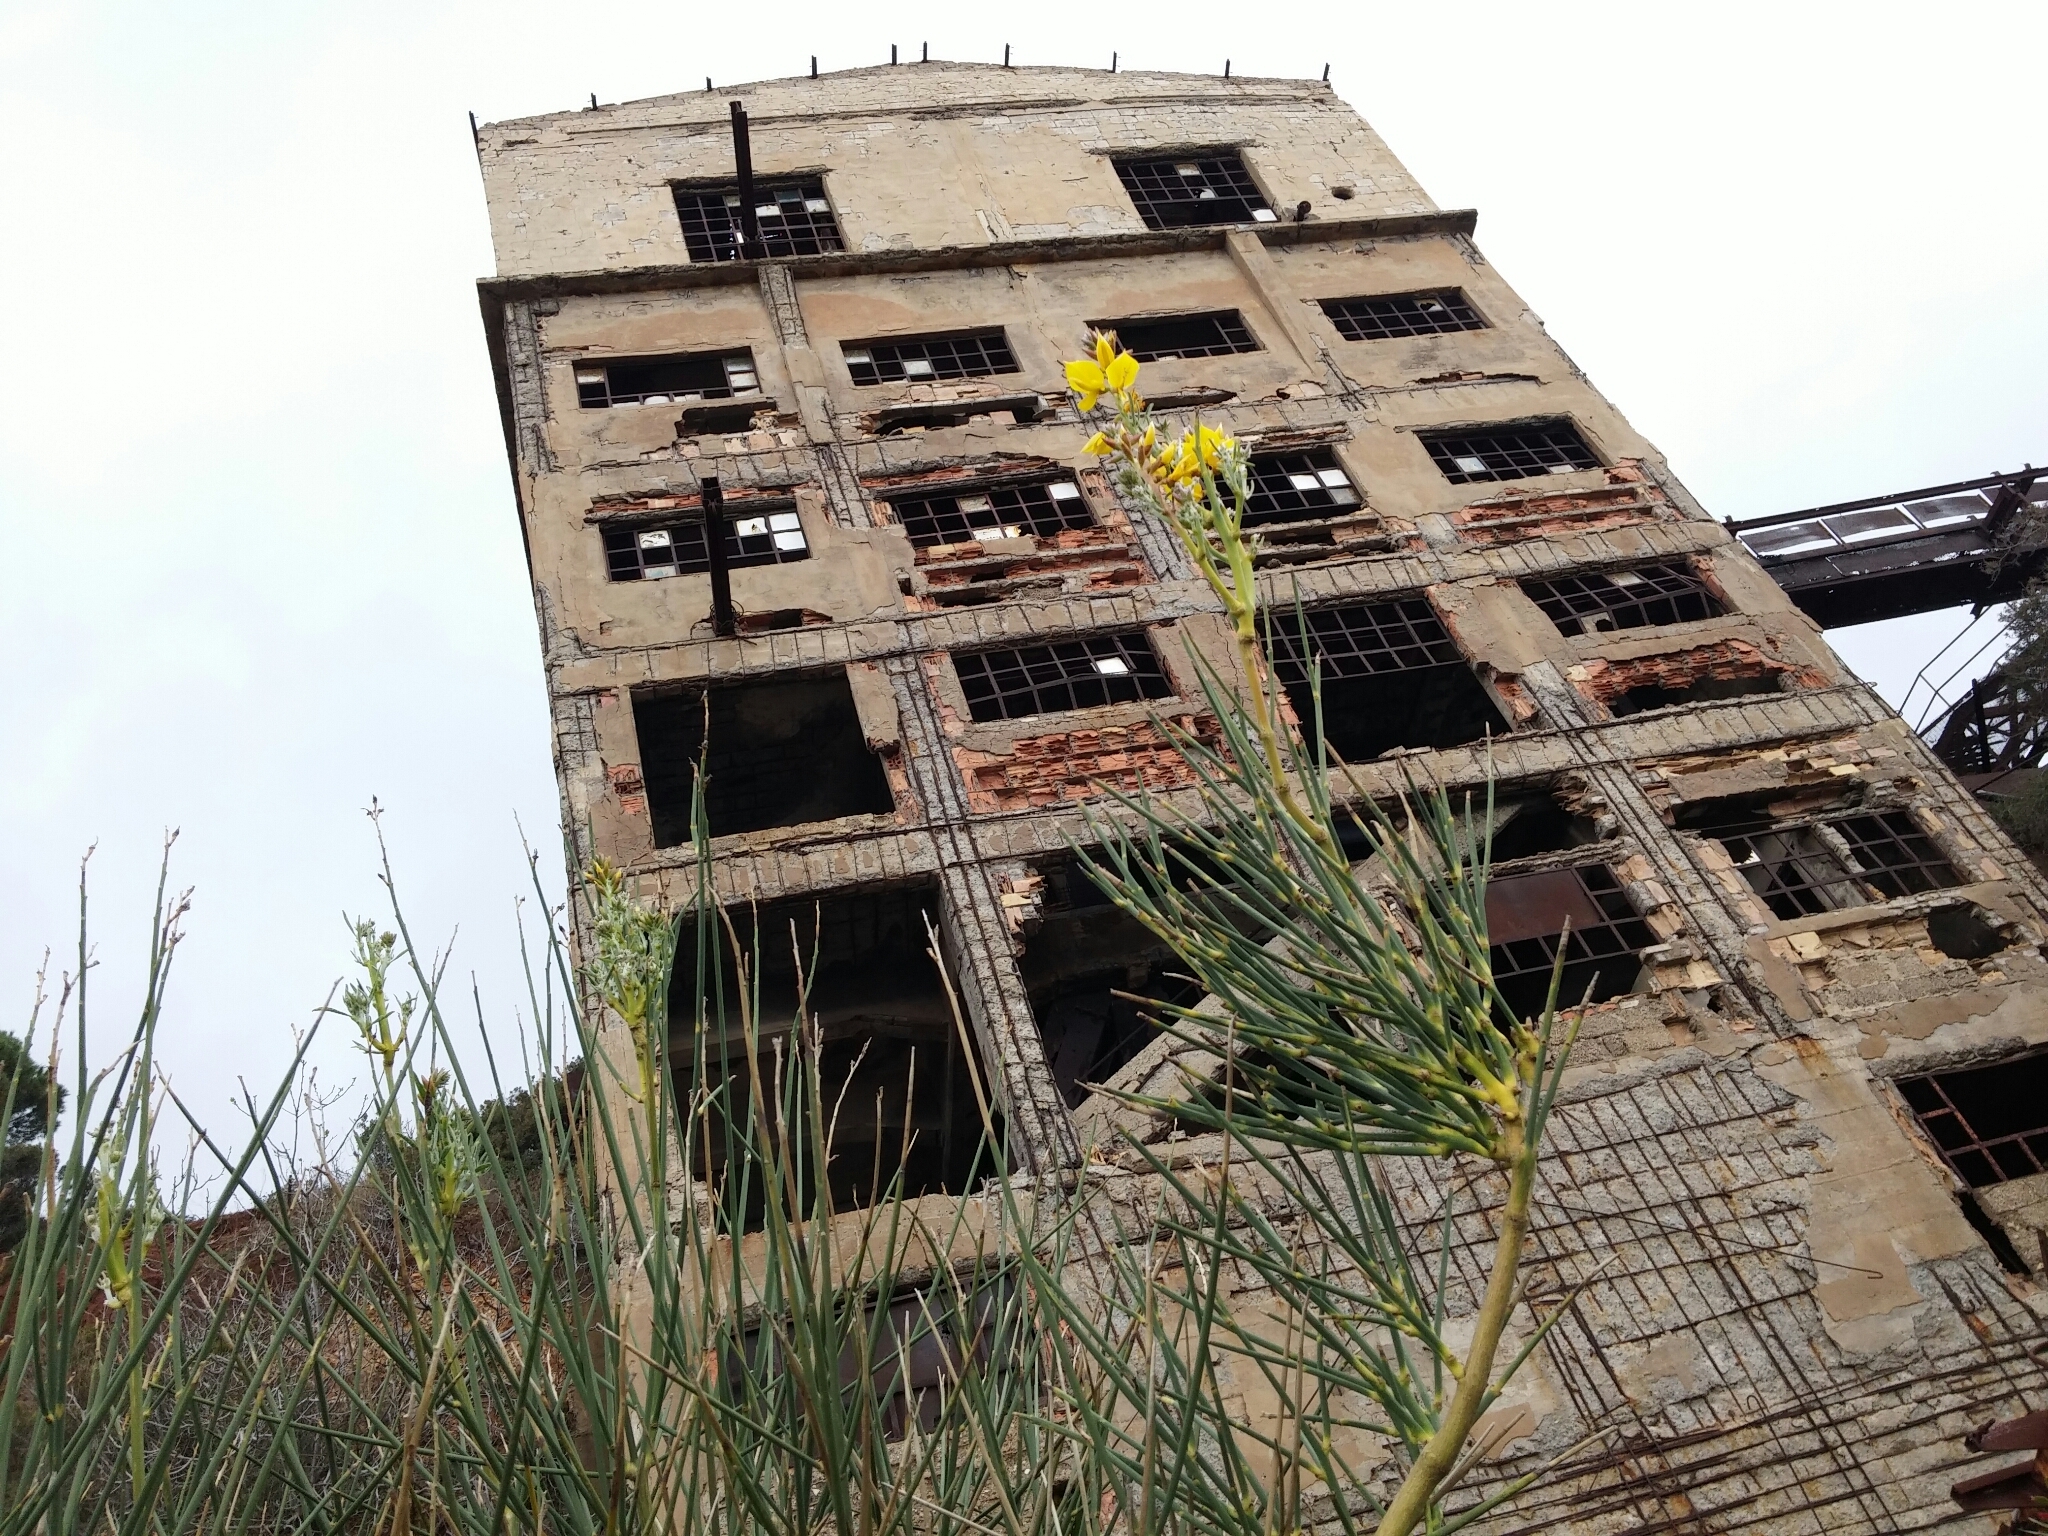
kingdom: Plantae
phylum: Tracheophyta
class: Magnoliopsida
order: Fabales
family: Fabaceae
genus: Spartium
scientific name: Spartium junceum
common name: Spanish broom
